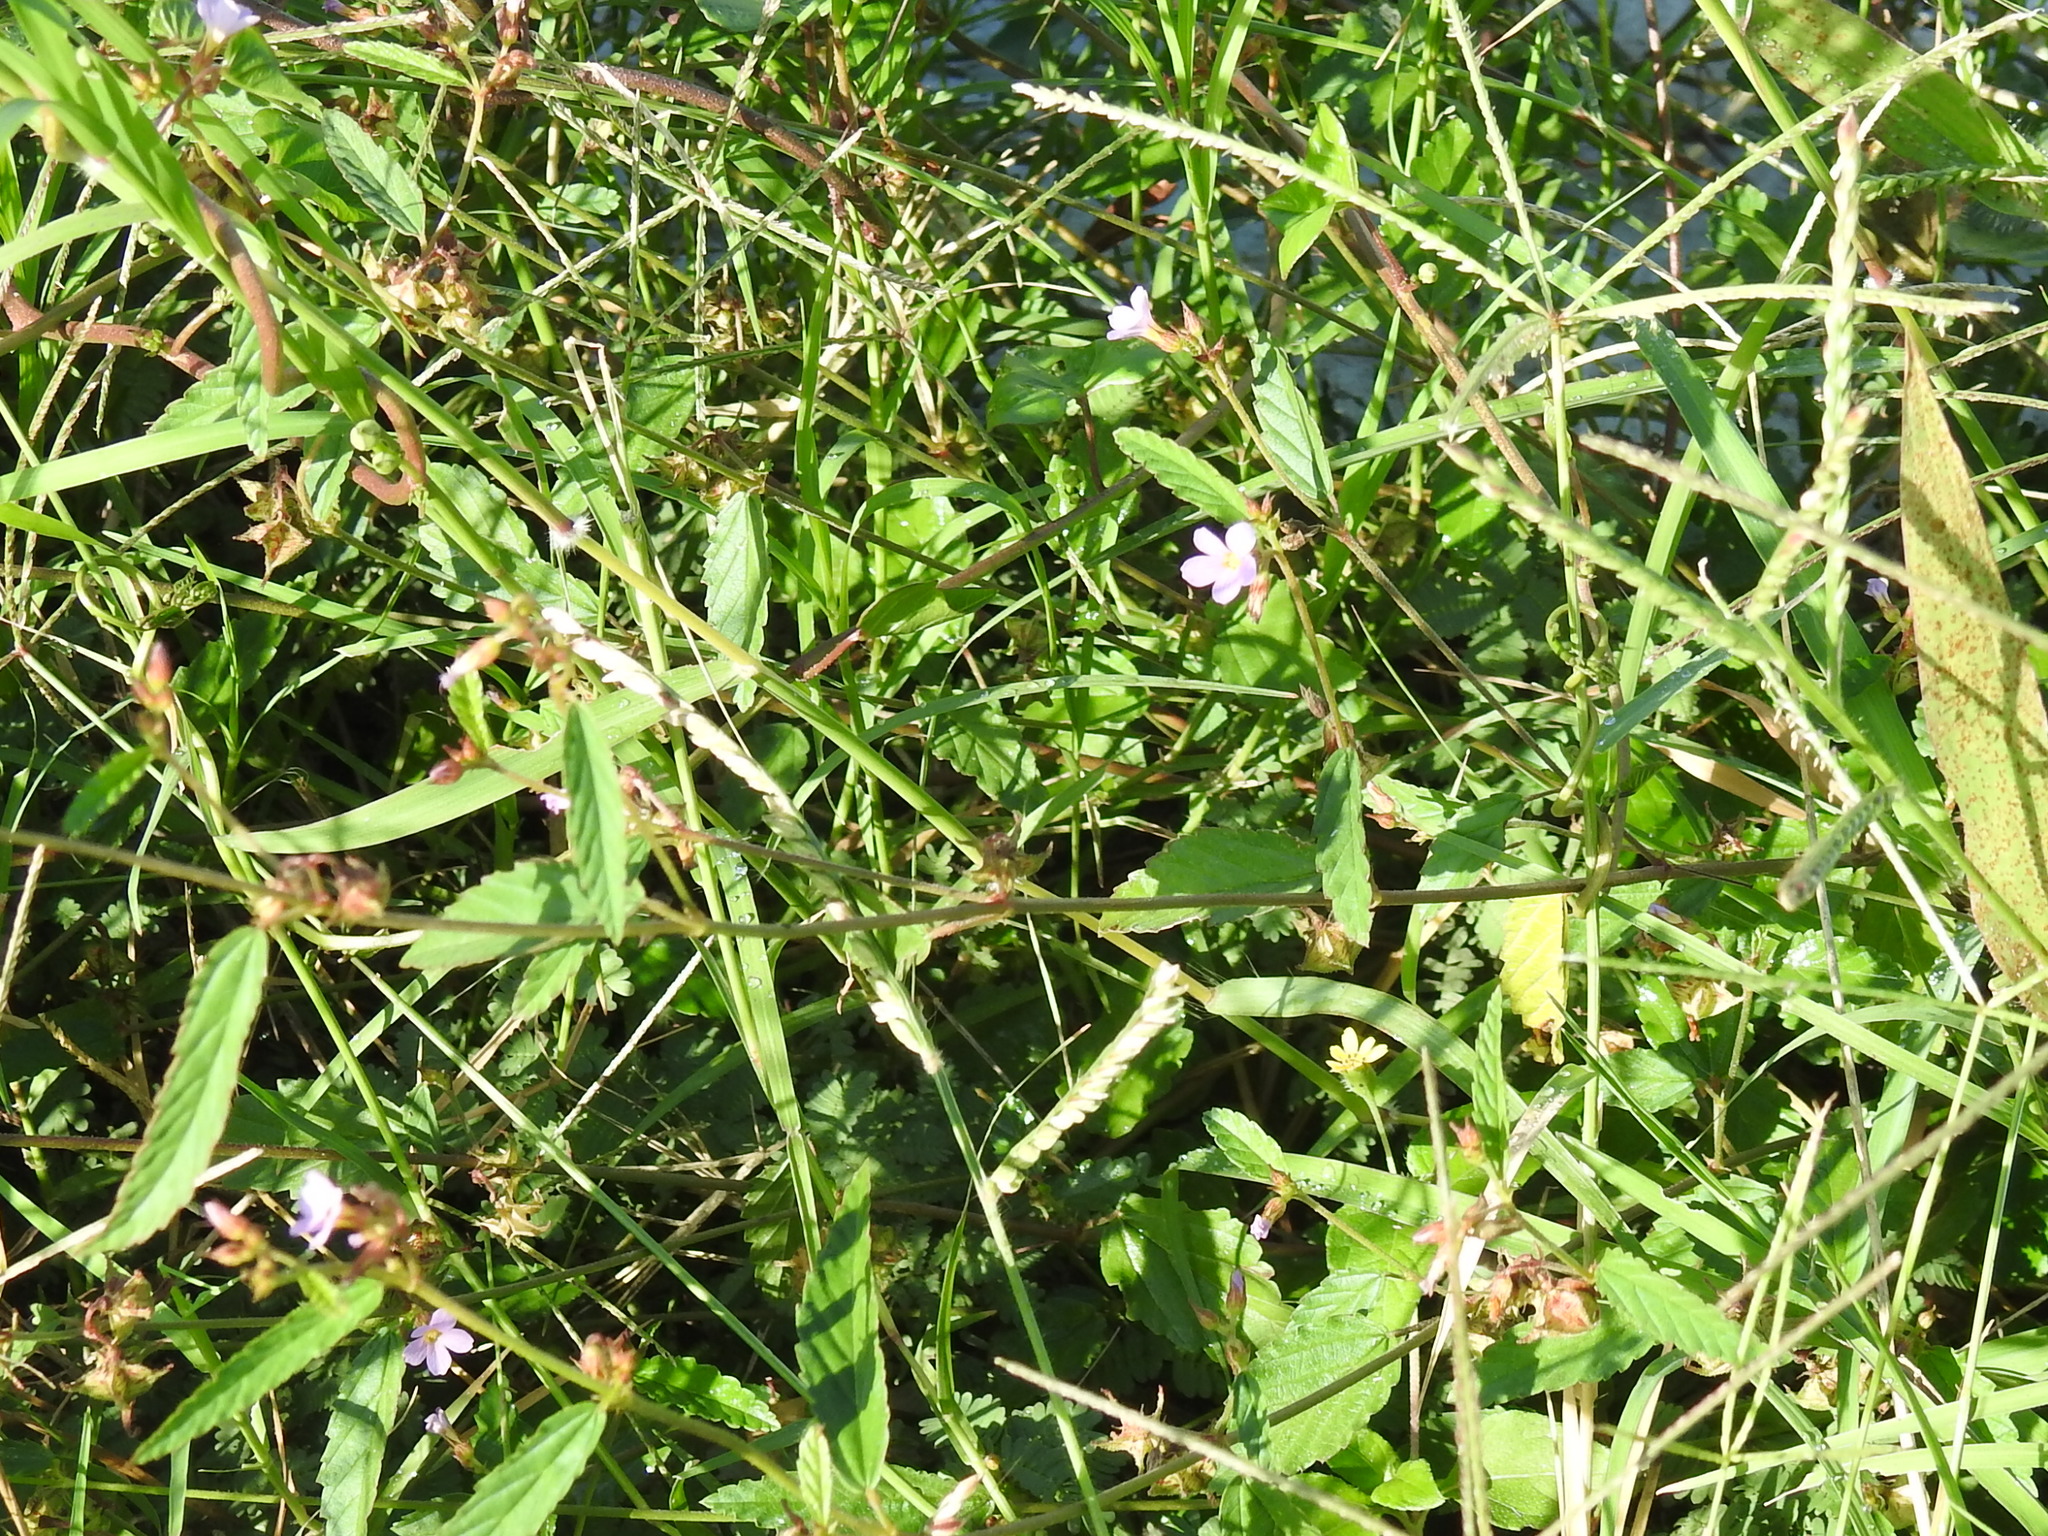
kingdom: Plantae
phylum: Tracheophyta
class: Magnoliopsida
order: Malvales
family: Malvaceae
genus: Melochia
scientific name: Melochia pyramidata
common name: Pyramidflower
